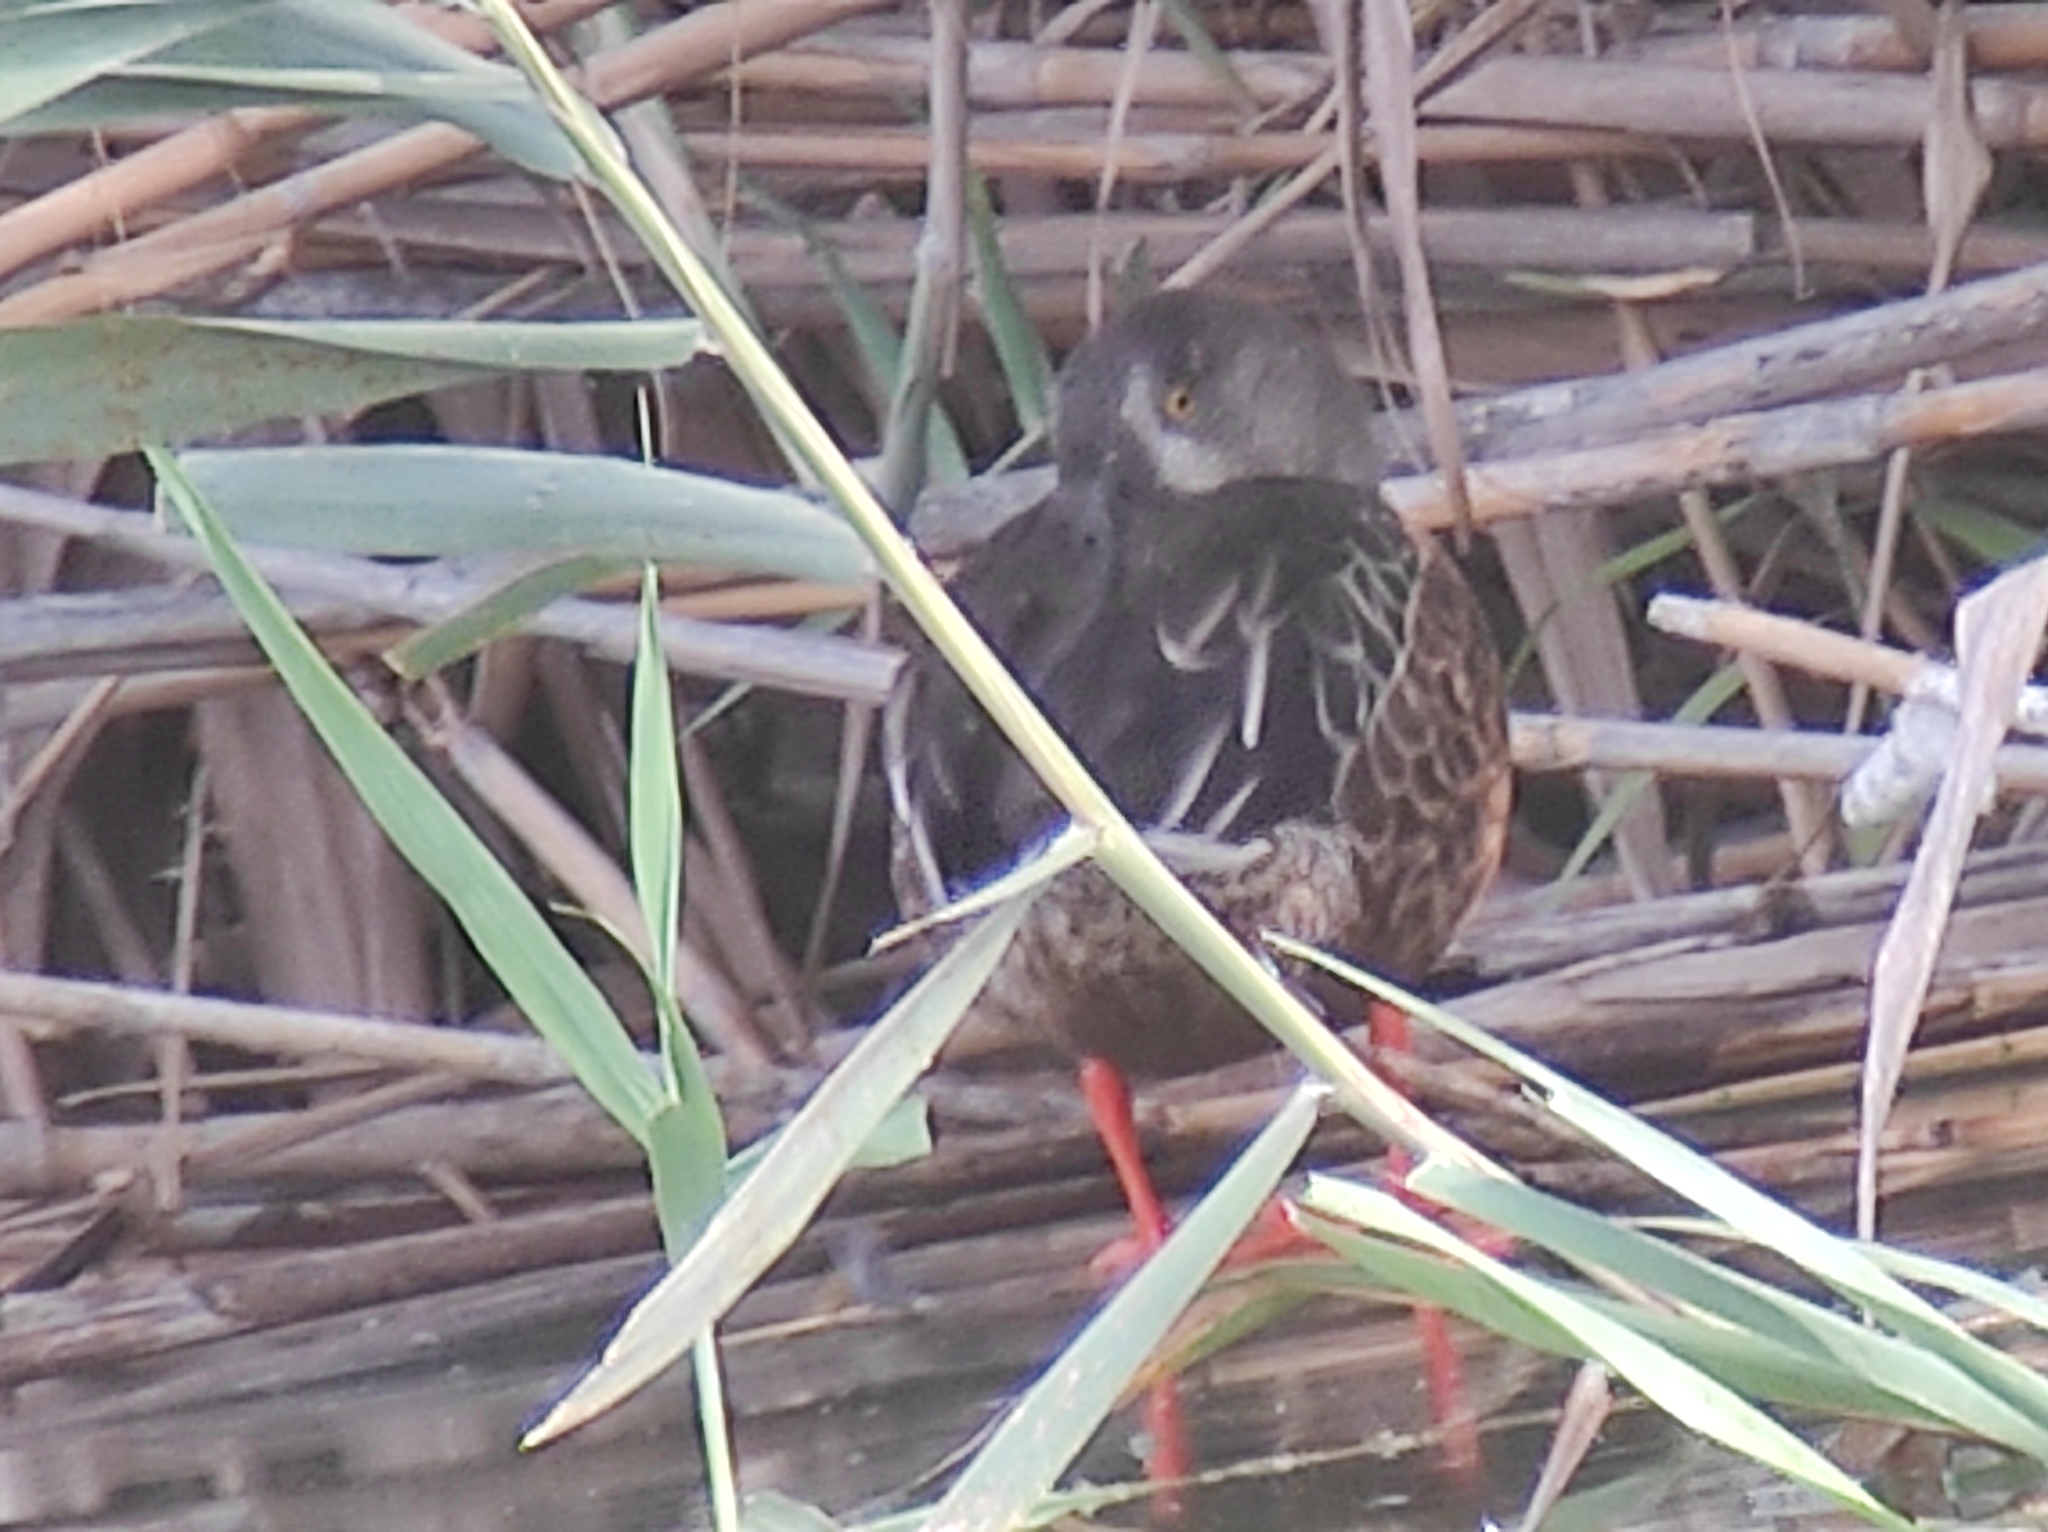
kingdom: Animalia
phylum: Chordata
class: Aves
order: Anseriformes
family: Anatidae
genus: Spatula
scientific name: Spatula clypeata
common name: Northern shoveler
